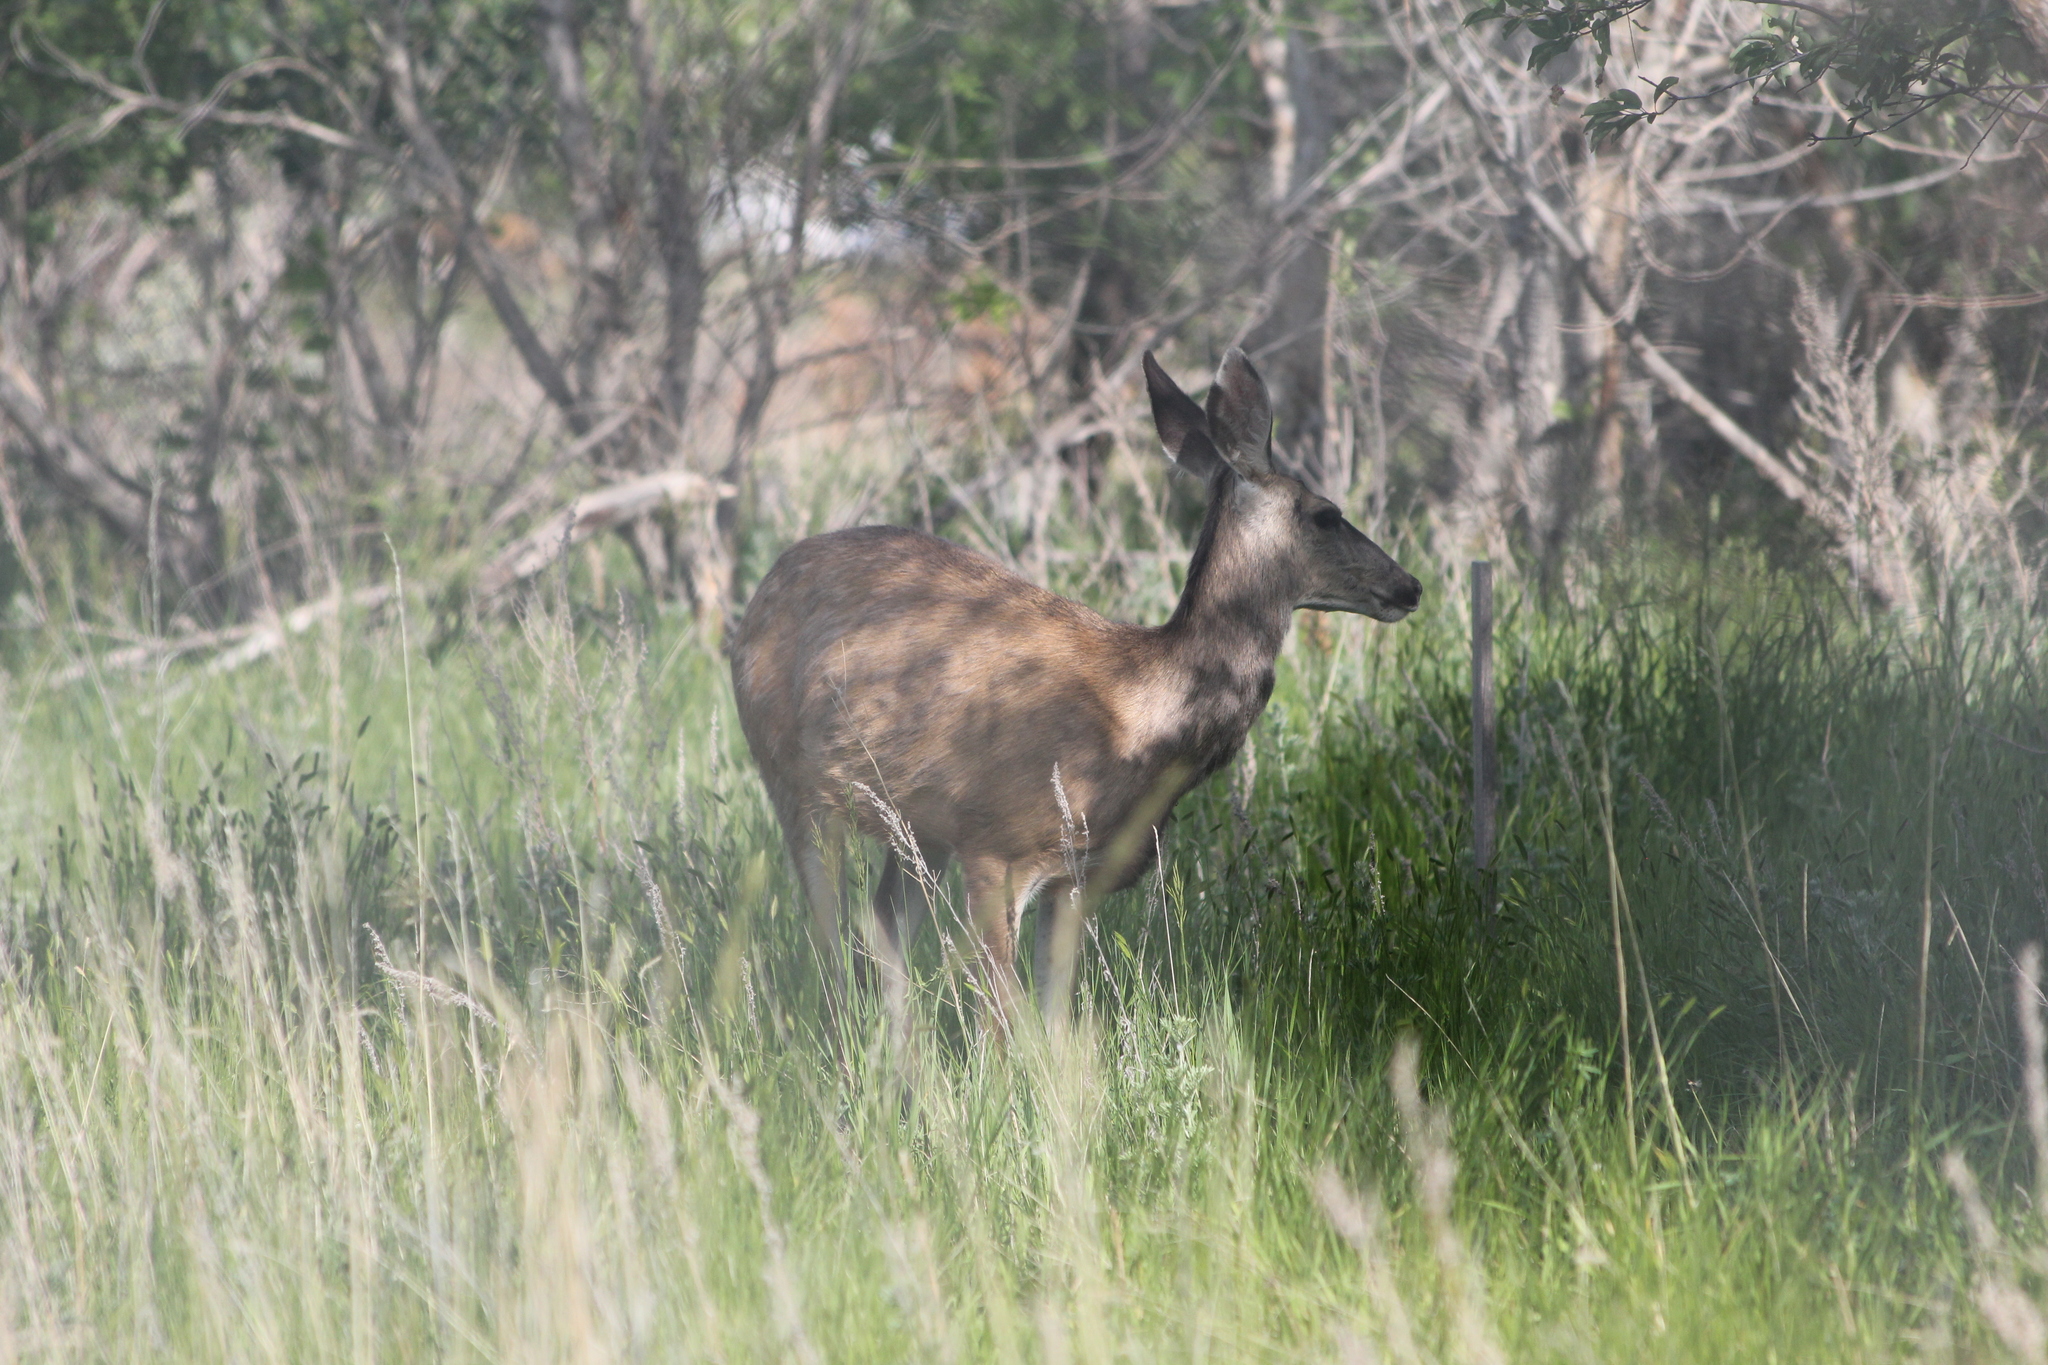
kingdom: Animalia
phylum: Chordata
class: Mammalia
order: Artiodactyla
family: Cervidae
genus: Odocoileus
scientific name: Odocoileus hemionus
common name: Mule deer
